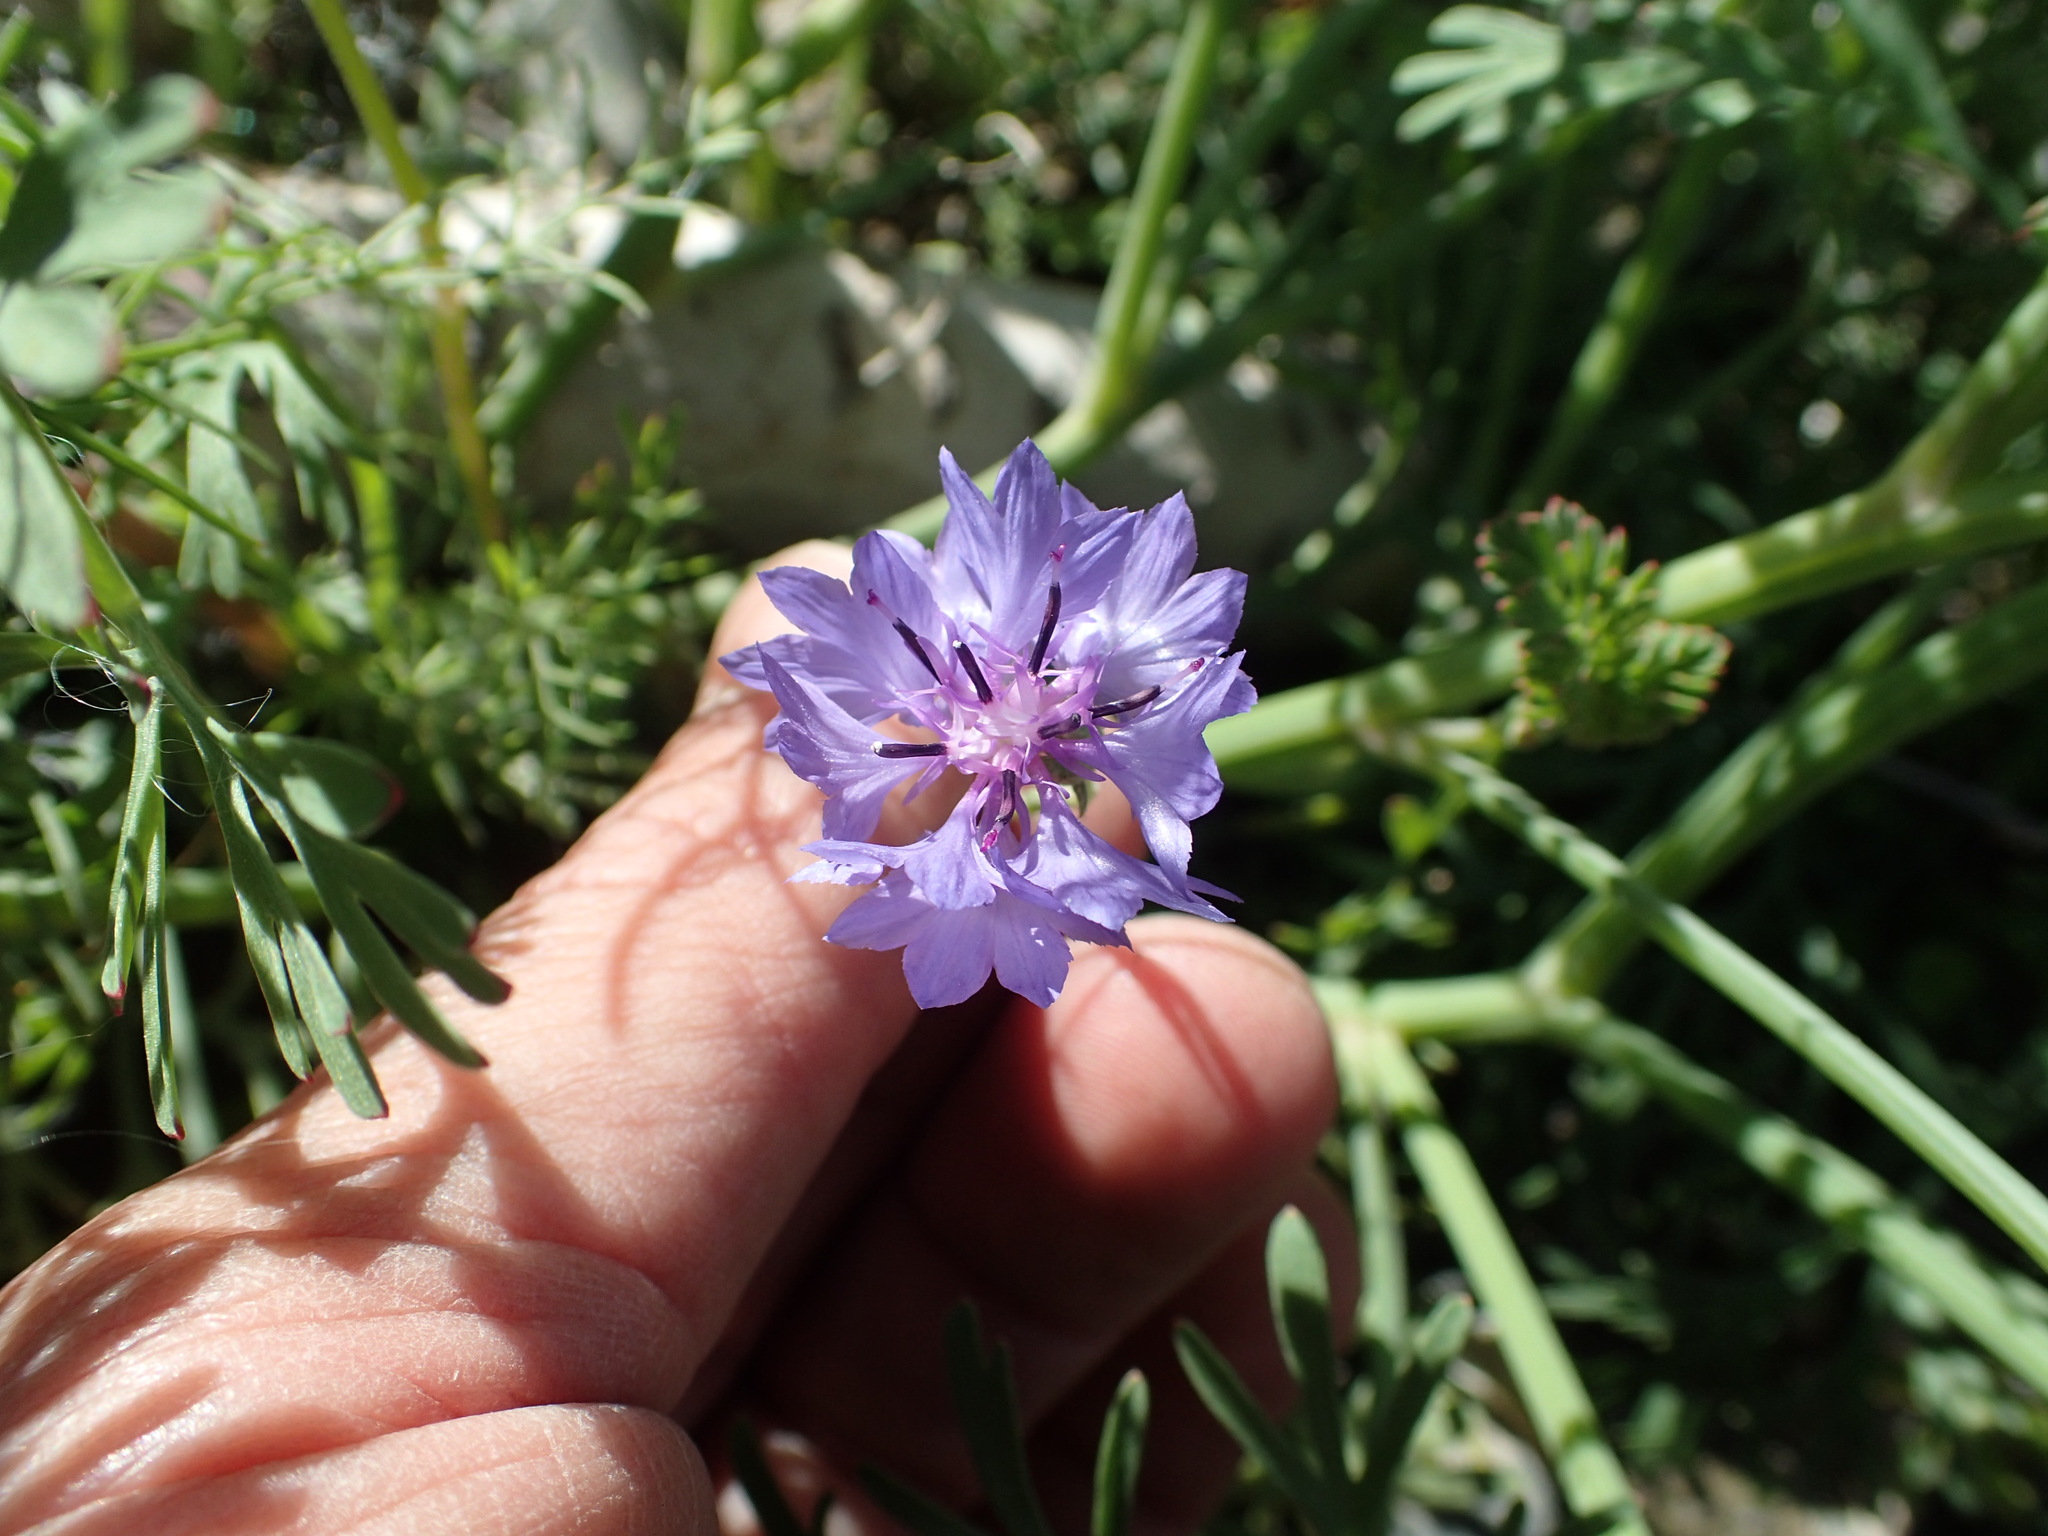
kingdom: Plantae
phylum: Tracheophyta
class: Magnoliopsida
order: Asterales
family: Asteraceae
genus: Centaurea
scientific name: Centaurea cyanus
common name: Cornflower
